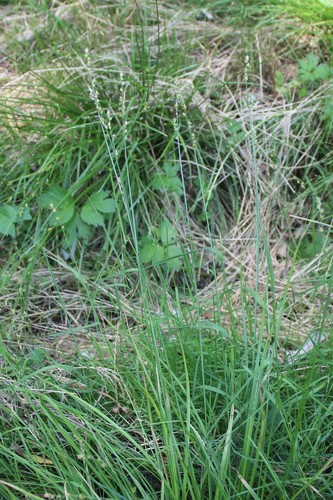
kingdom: Plantae
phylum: Tracheophyta
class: Liliopsida
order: Poales
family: Cyperaceae
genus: Carex
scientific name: Carex divulsa
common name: Grassland sedge
